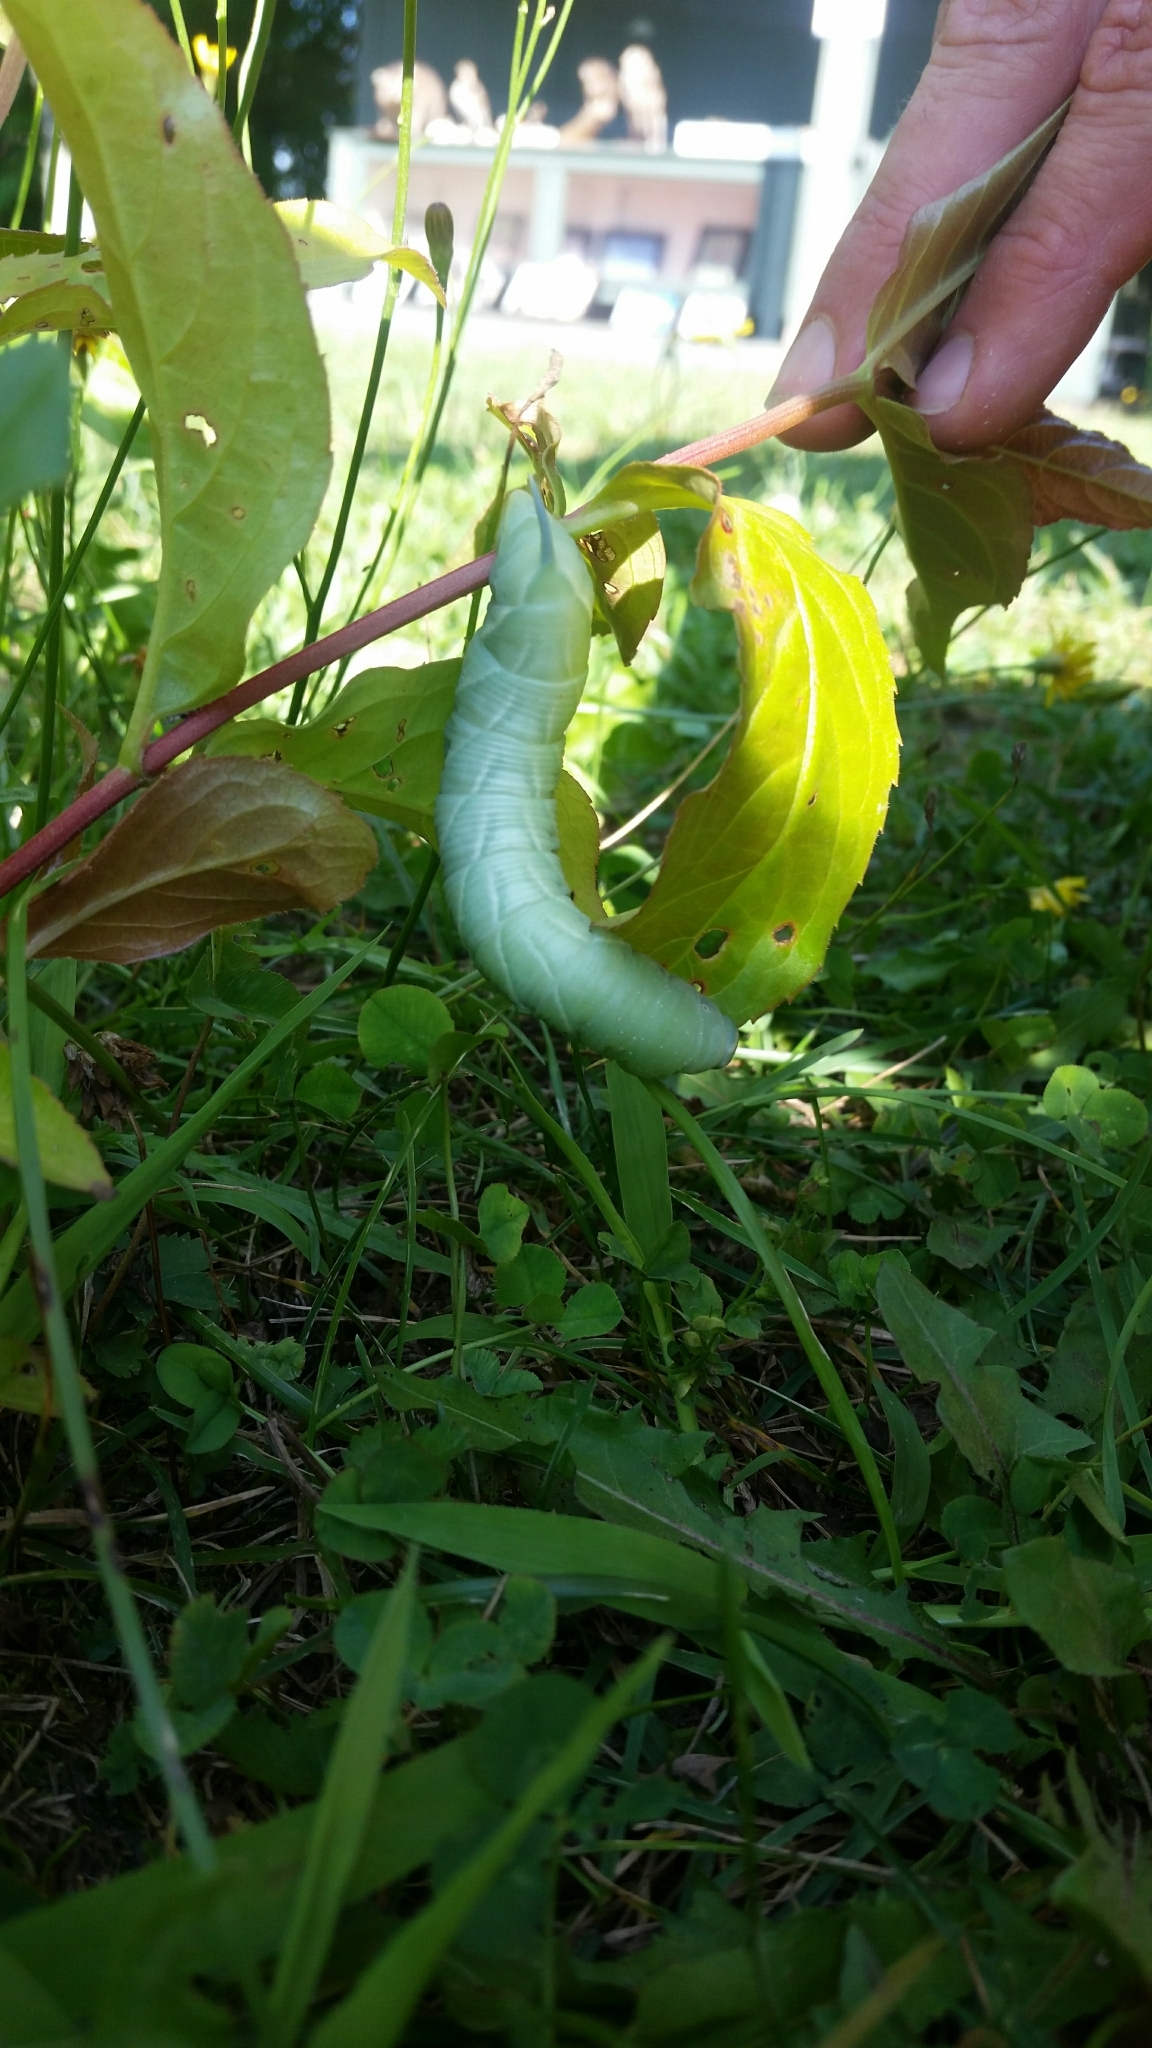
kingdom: Animalia
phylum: Arthropoda
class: Insecta
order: Lepidoptera
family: Sphingidae
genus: Sphinx
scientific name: Sphinx chersis
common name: Great ash sphinx
